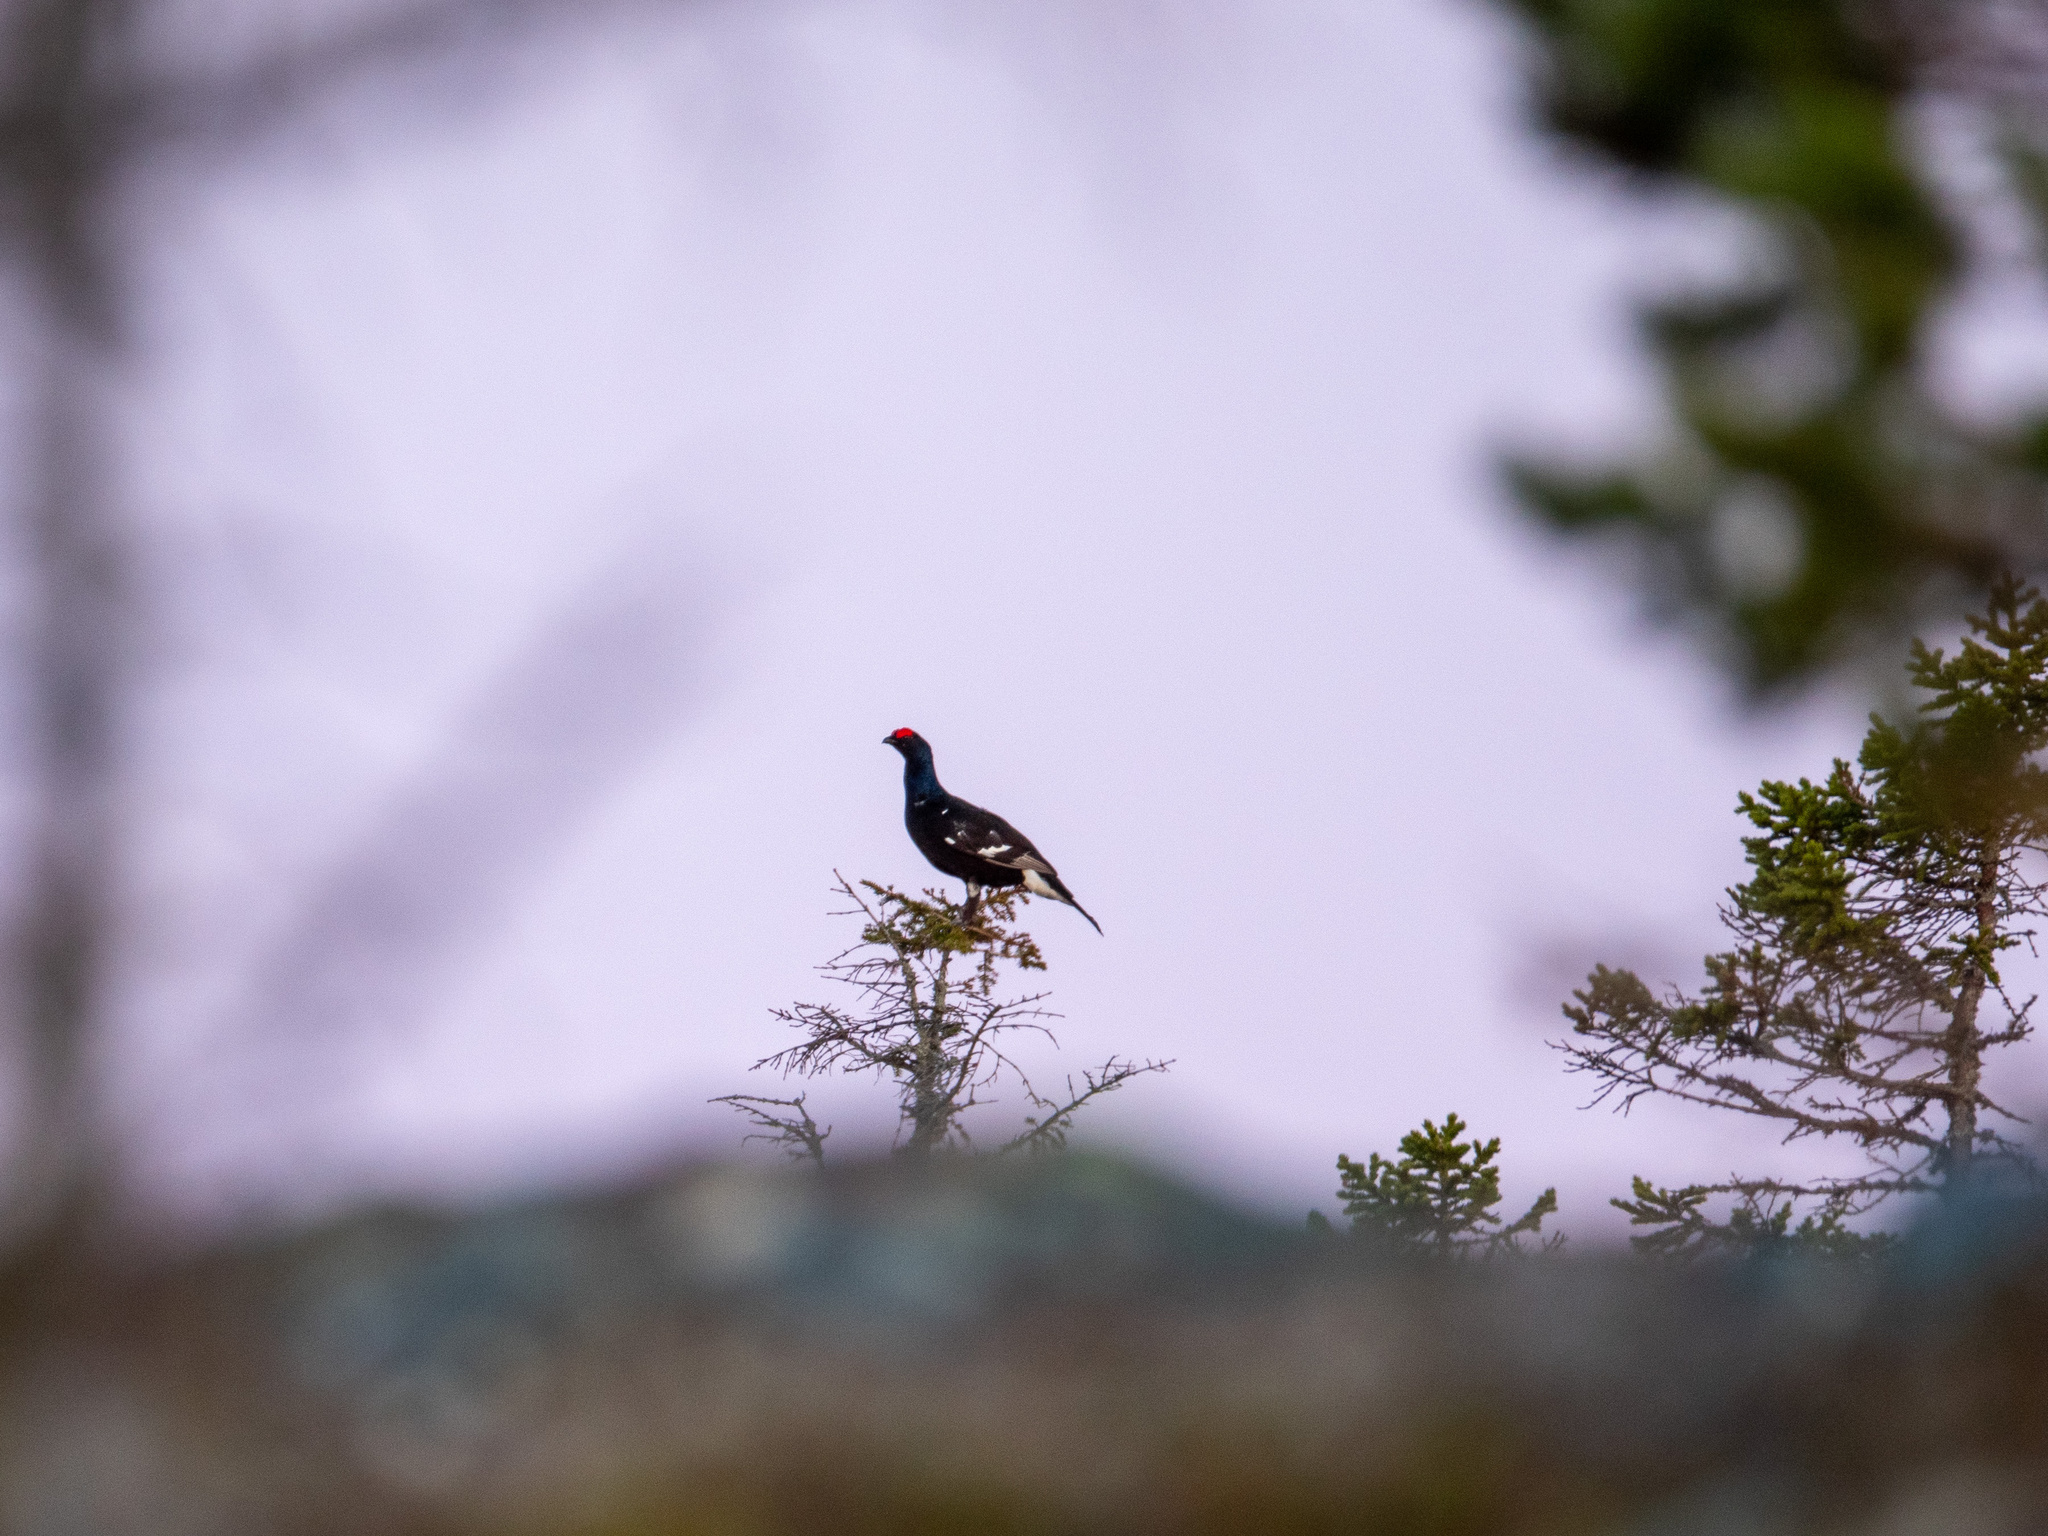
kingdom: Animalia
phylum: Chordata
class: Aves
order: Galliformes
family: Phasianidae
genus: Lyrurus
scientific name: Lyrurus tetrix
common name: Black grouse
